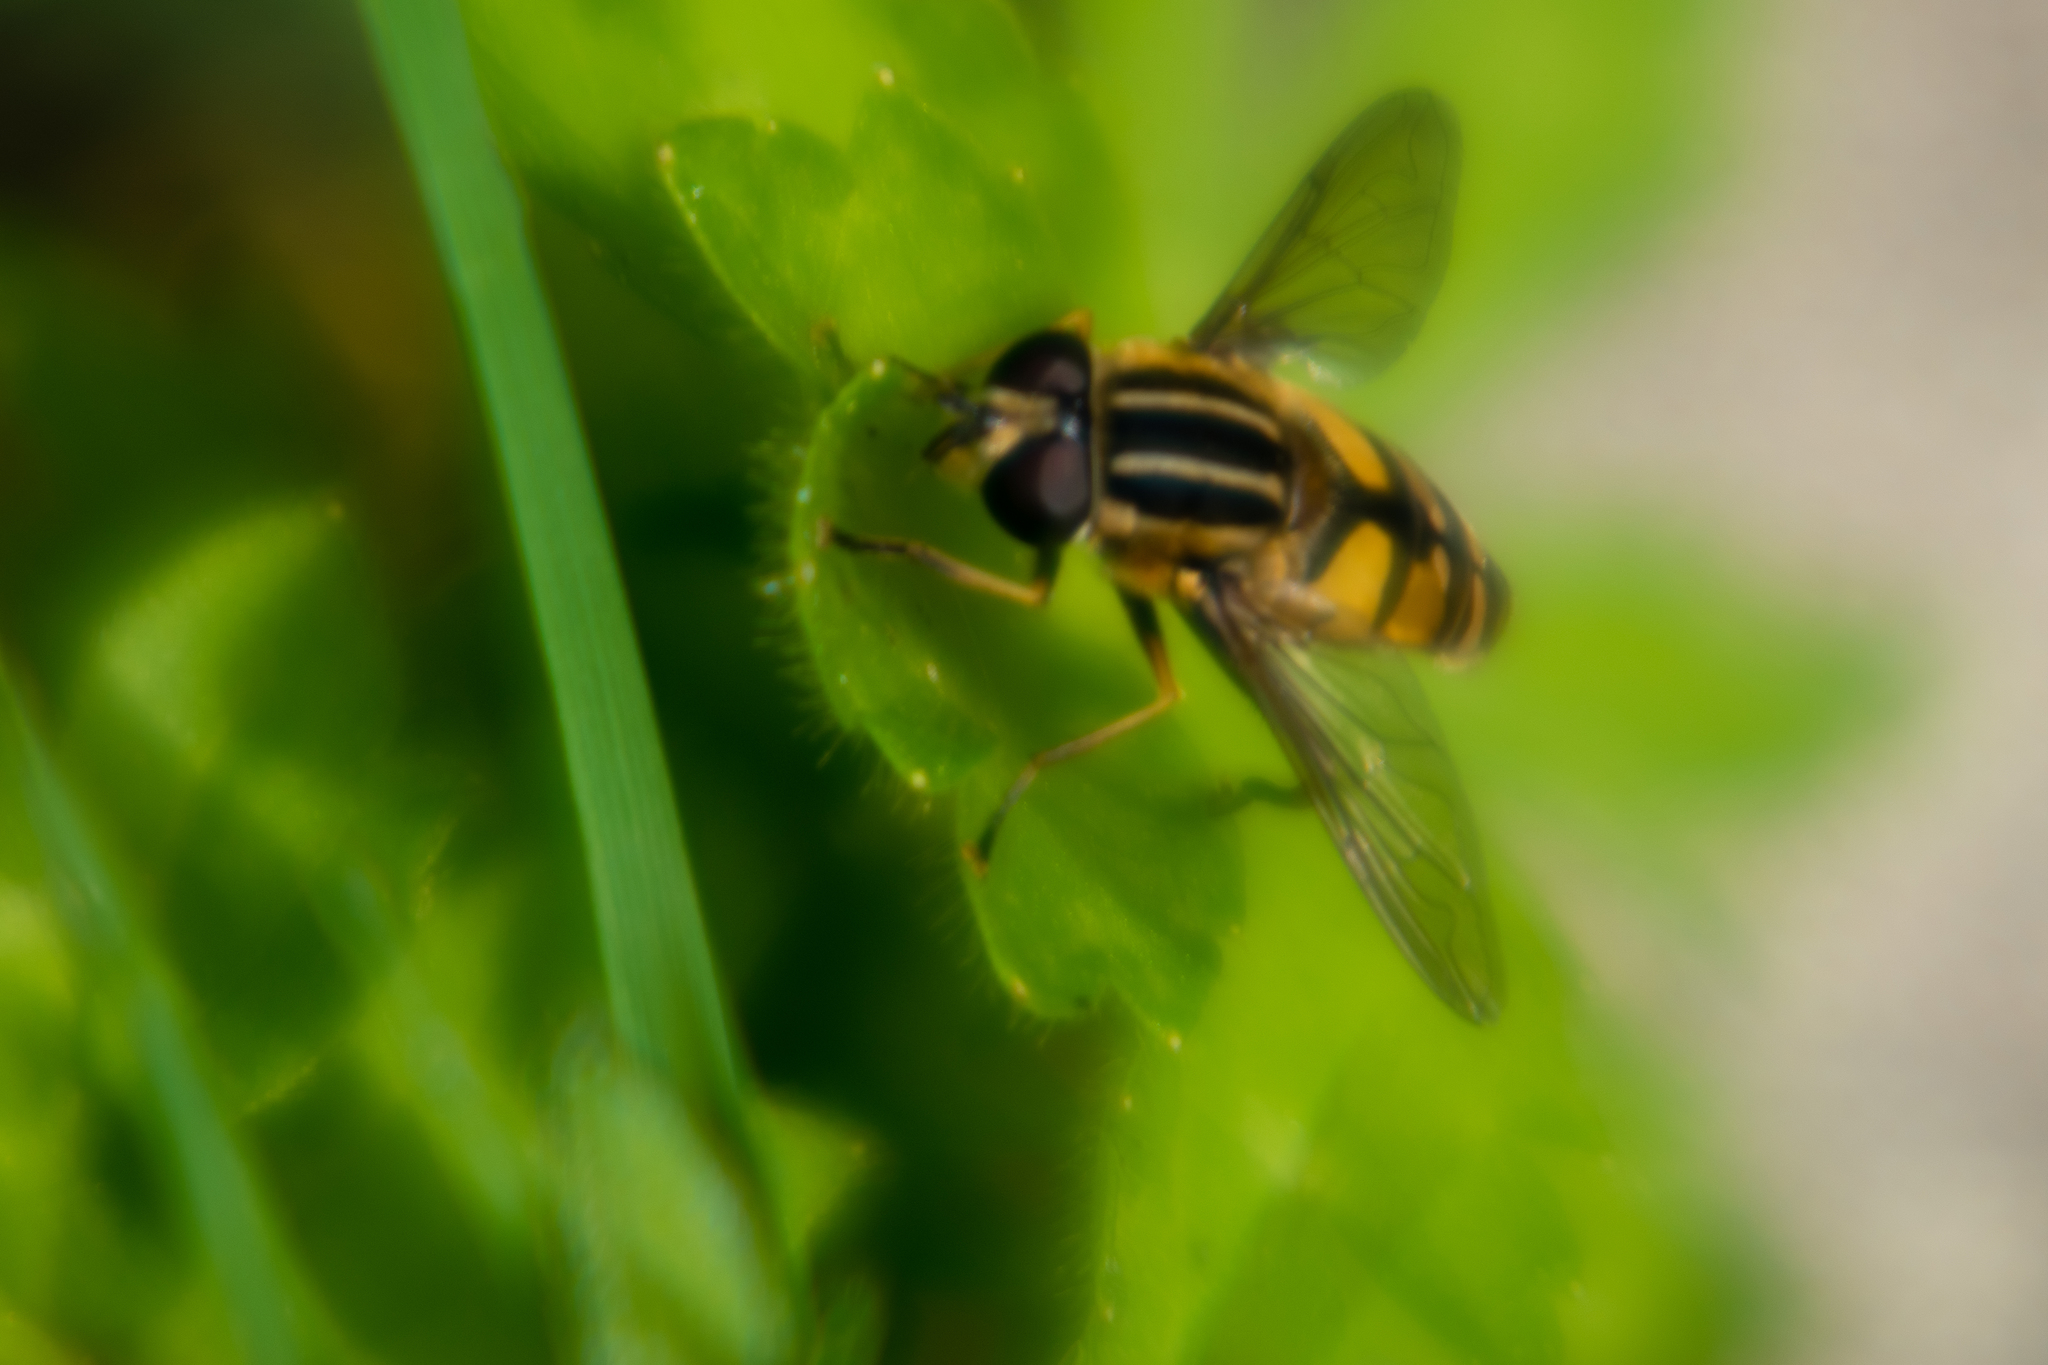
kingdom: Animalia
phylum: Arthropoda
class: Insecta
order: Diptera
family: Syrphidae
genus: Helophilus
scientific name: Helophilus pendulus
